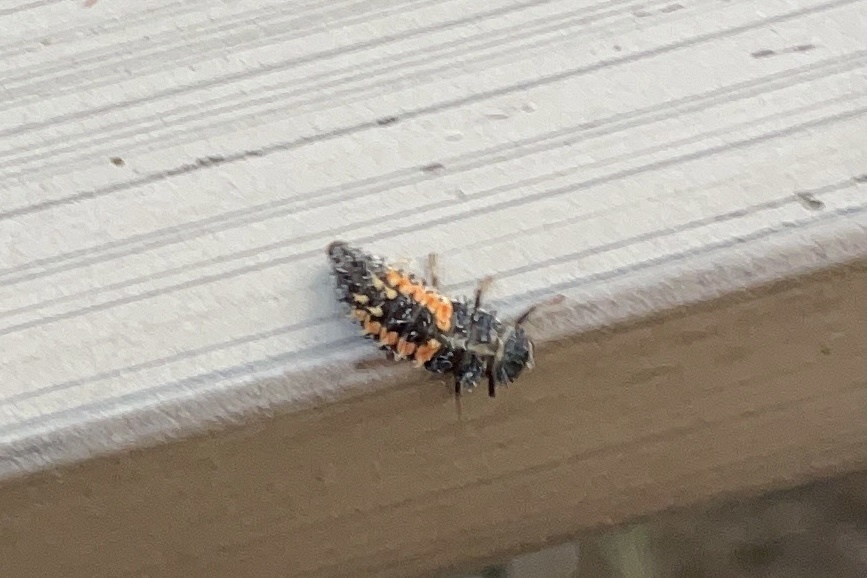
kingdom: Animalia
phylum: Arthropoda
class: Insecta
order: Coleoptera
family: Coccinellidae
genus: Harmonia
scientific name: Harmonia axyridis
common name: Harlequin ladybird
